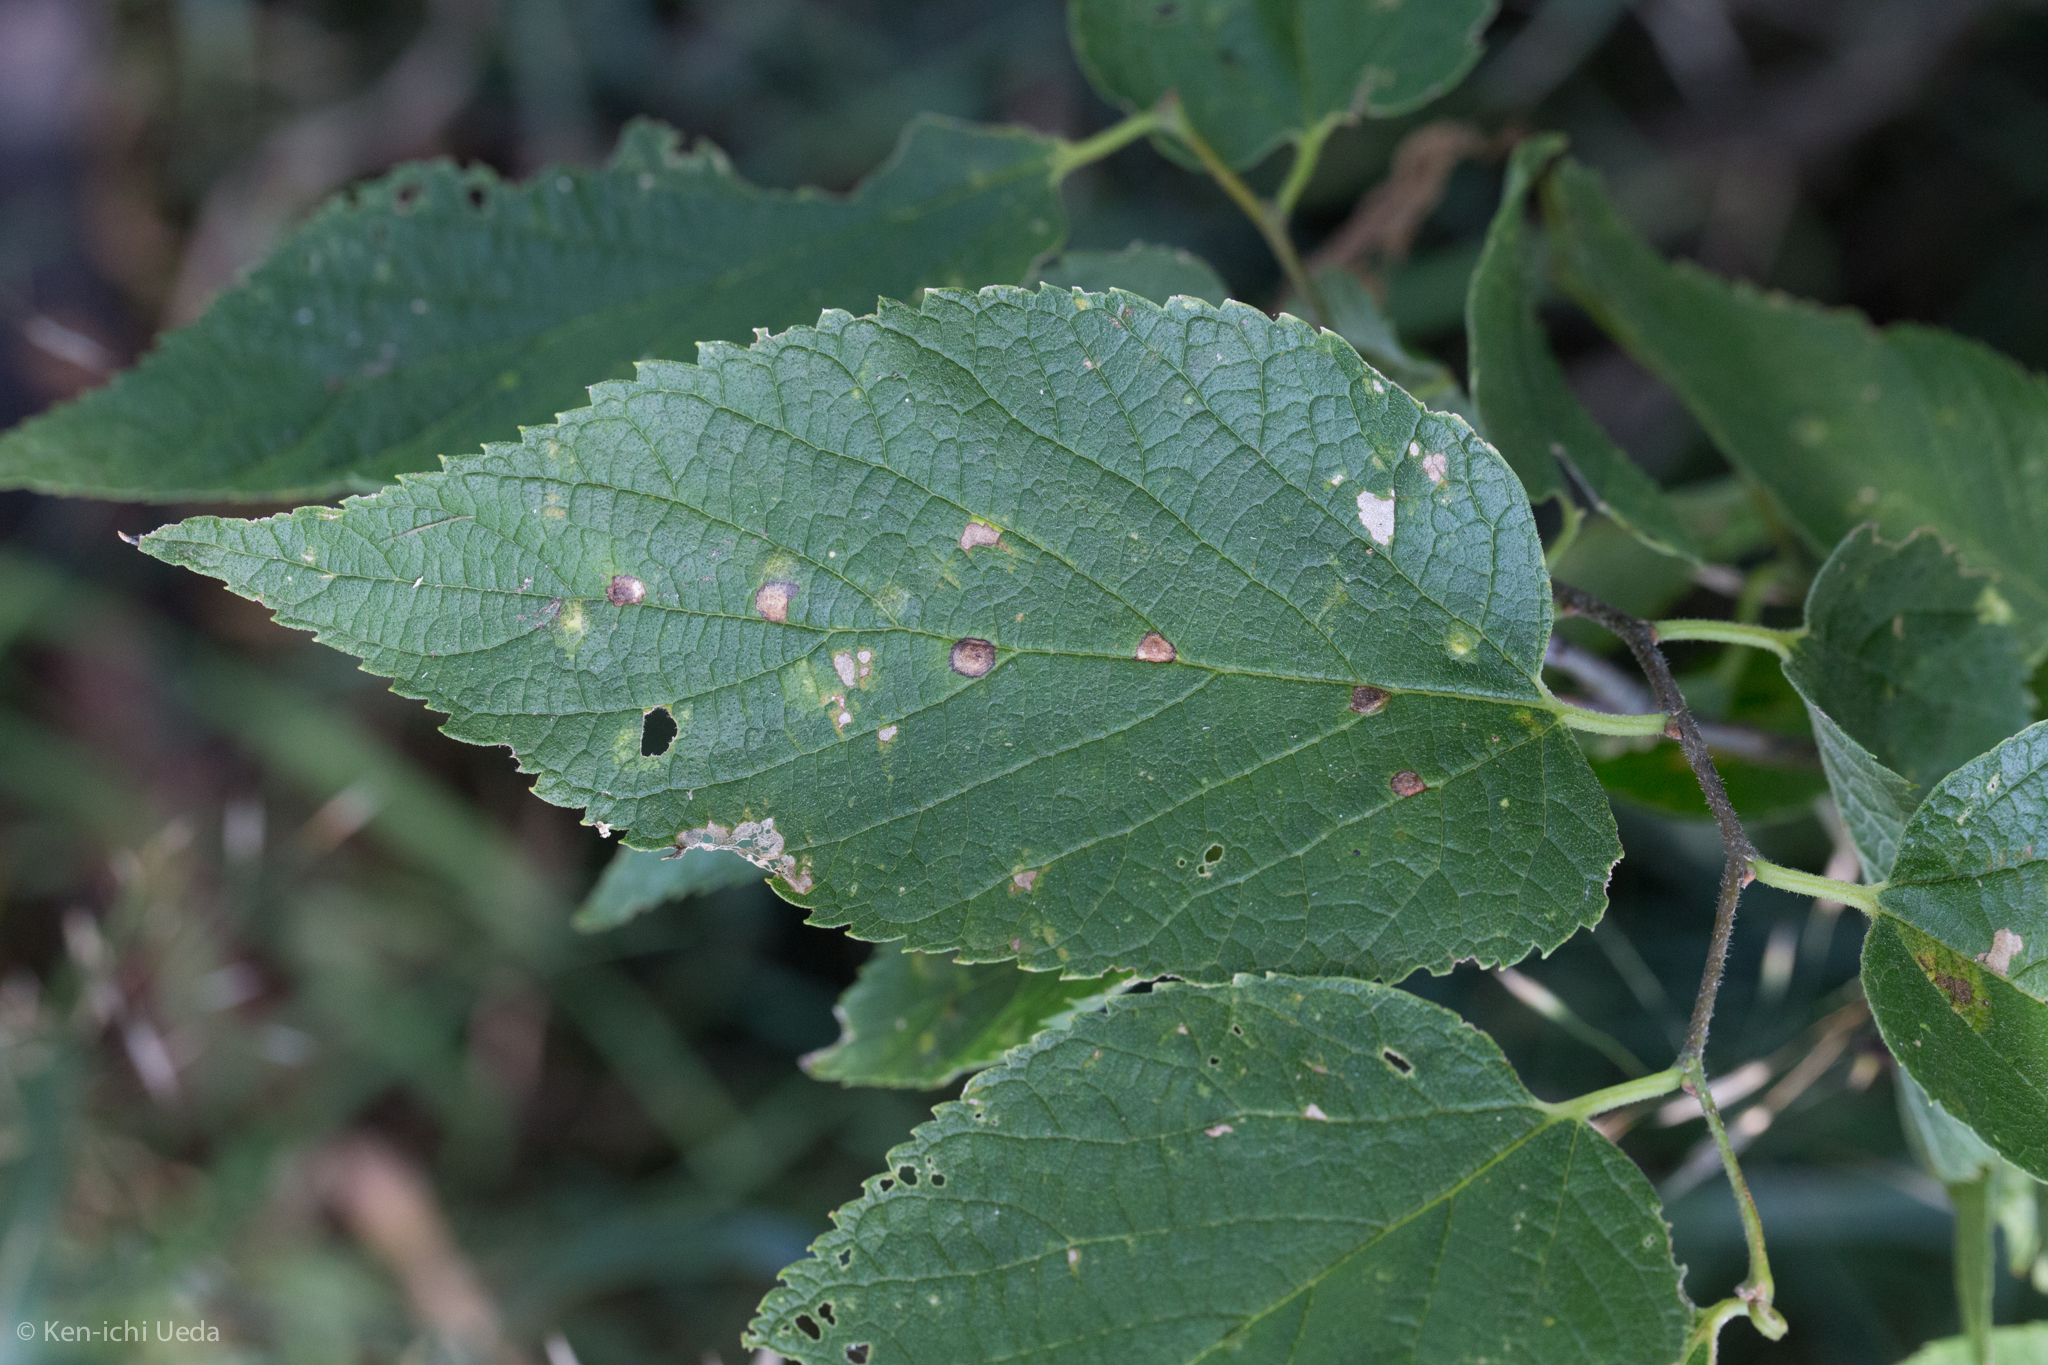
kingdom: Plantae
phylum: Tracheophyta
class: Magnoliopsida
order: Rosales
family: Cannabaceae
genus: Celtis
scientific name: Celtis occidentalis
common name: Common hackberry
